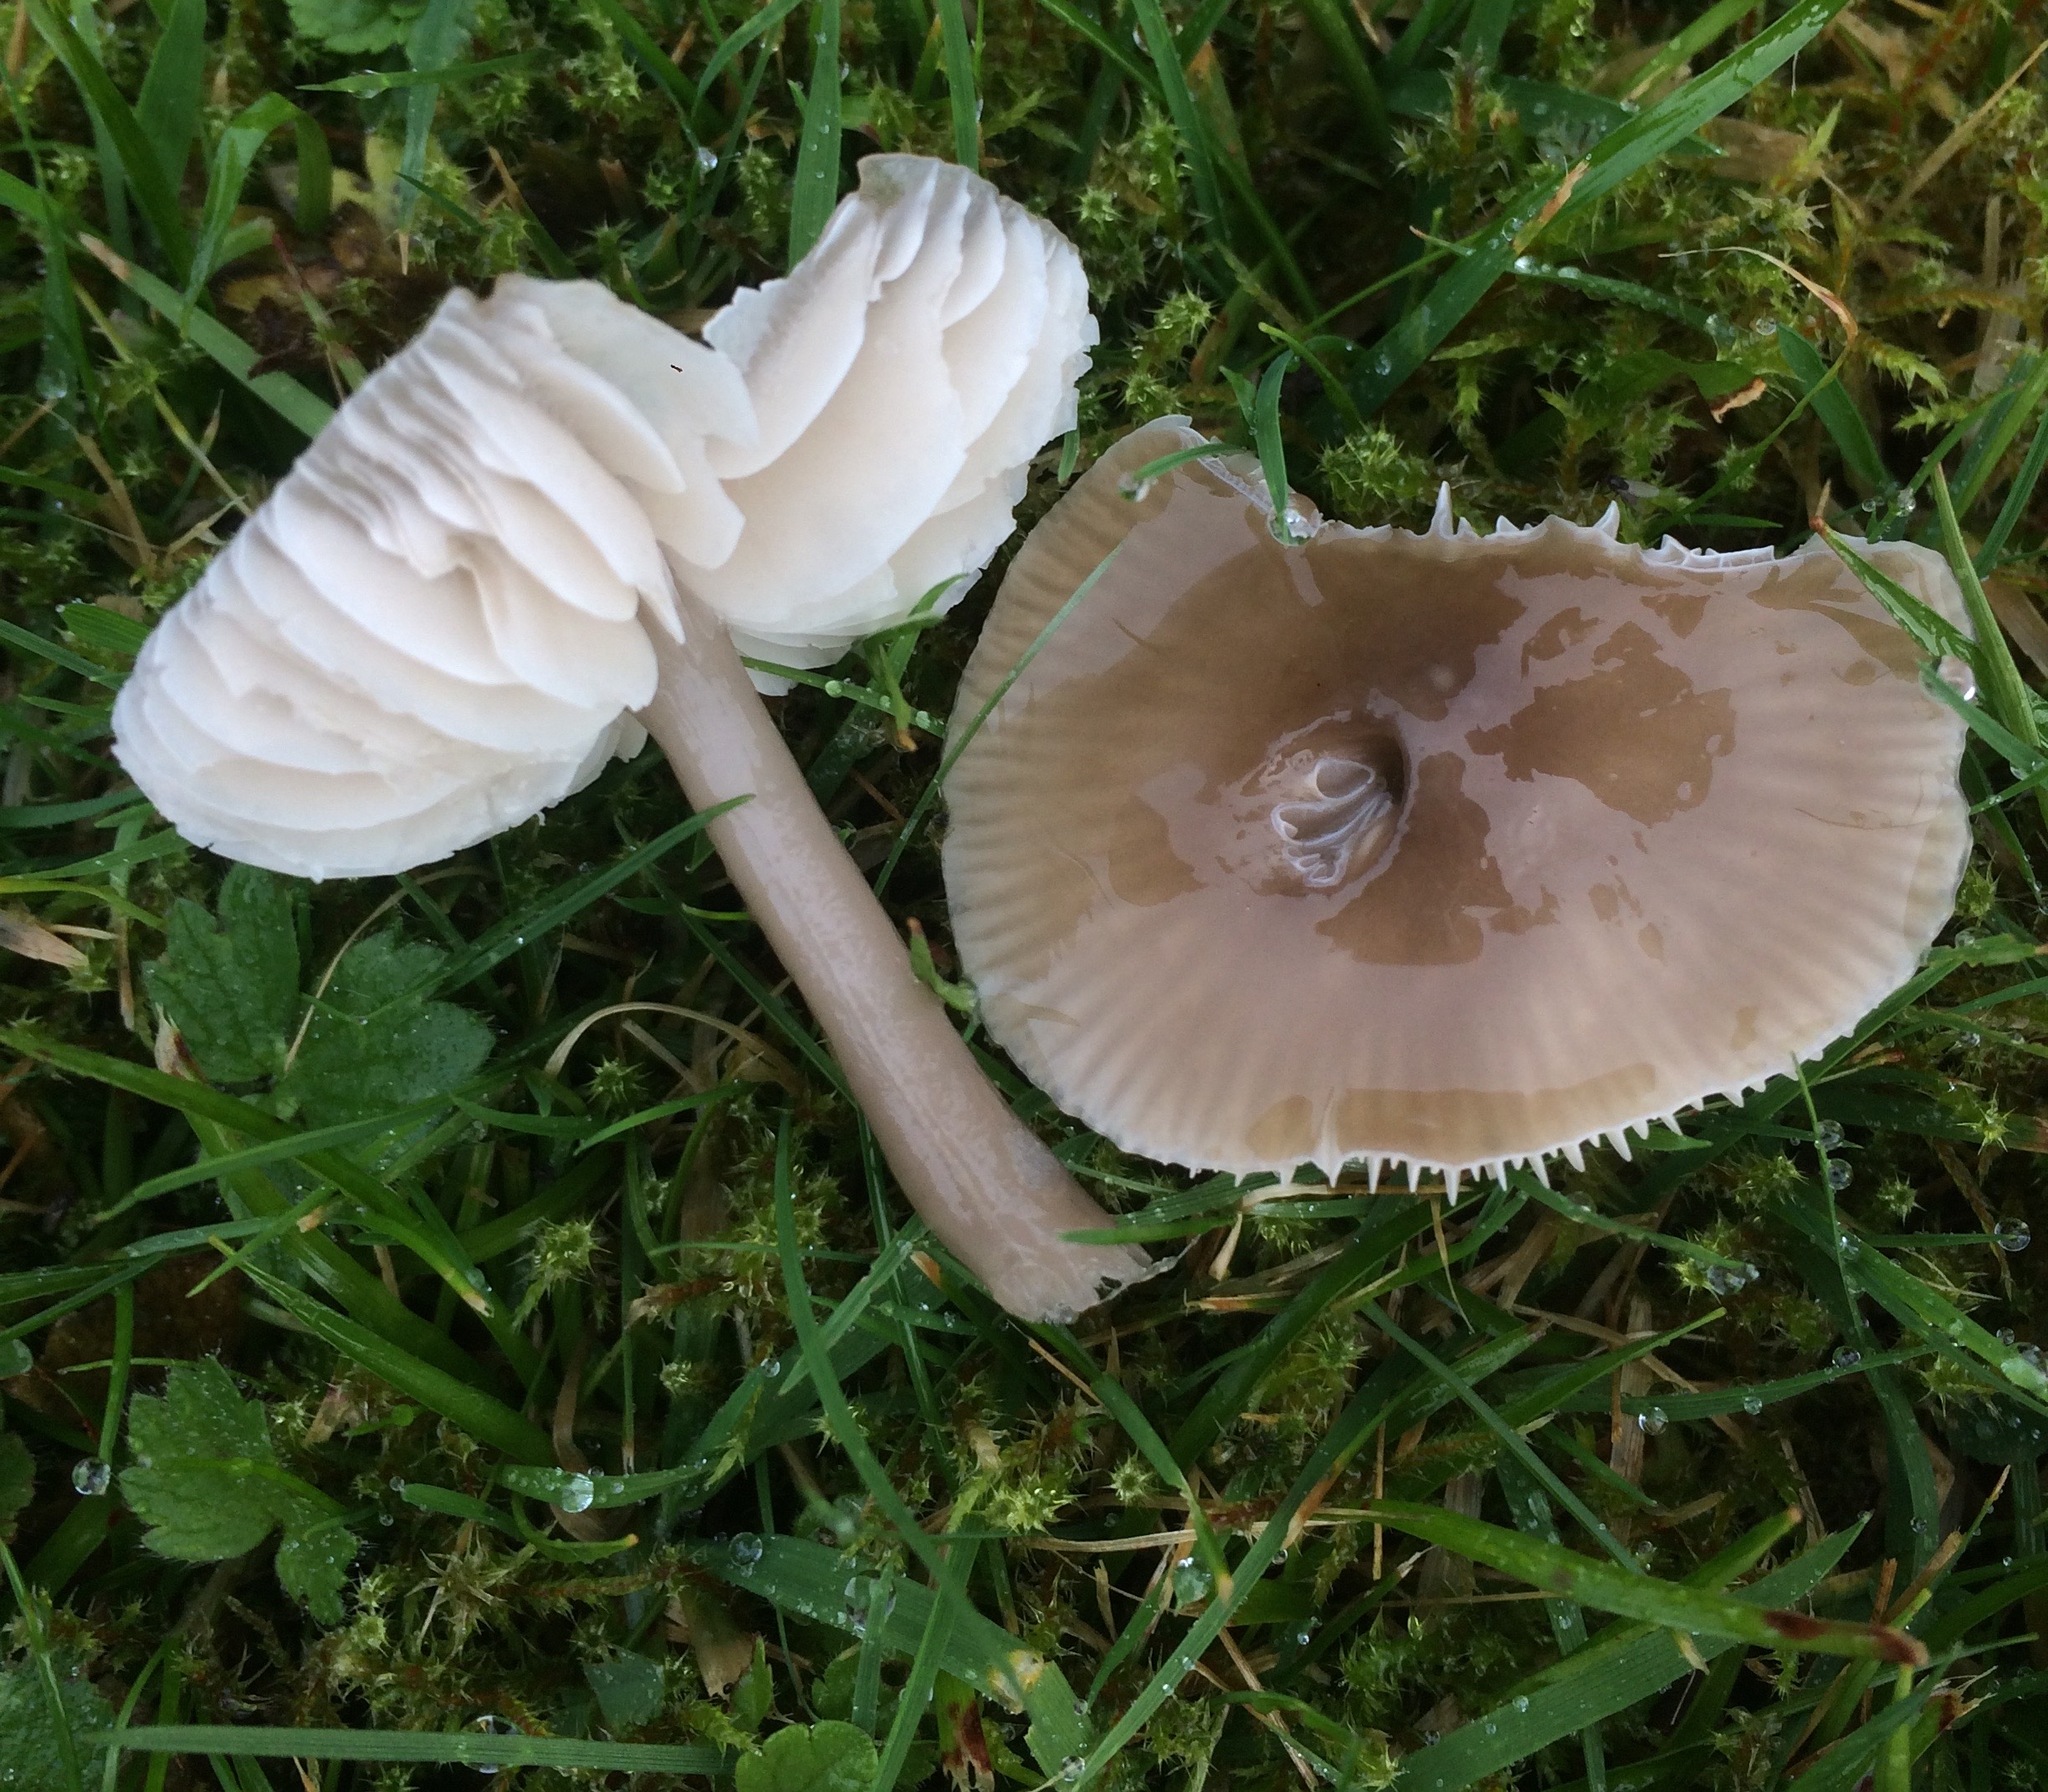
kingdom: Fungi
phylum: Basidiomycota
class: Agaricomycetes
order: Agaricales
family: Hygrophoraceae
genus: Gliophorus
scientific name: Gliophorus irrigatus
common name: Slimy waxcap
